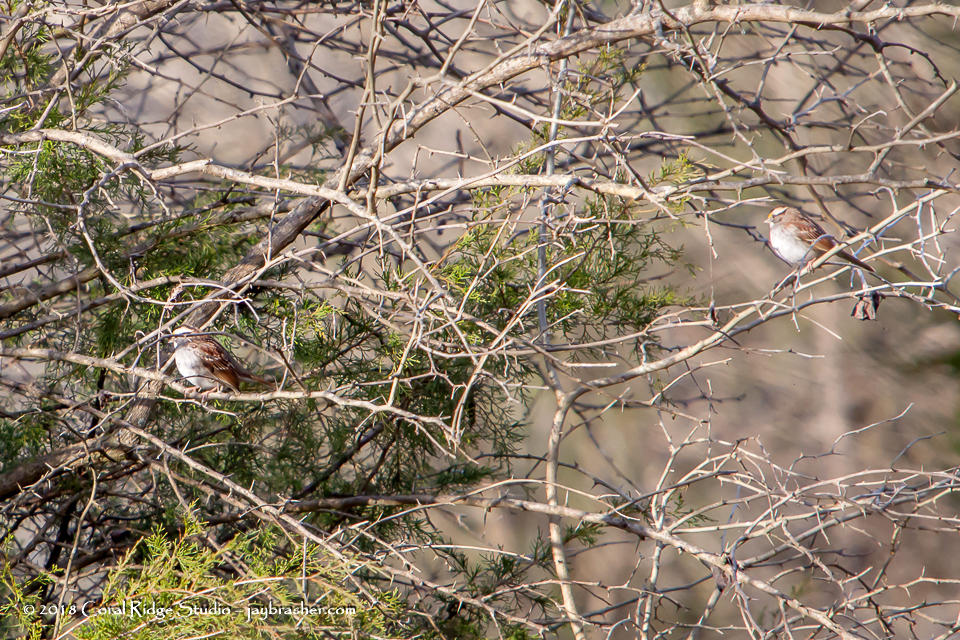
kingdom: Animalia
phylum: Chordata
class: Aves
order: Passeriformes
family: Passerellidae
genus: Zonotrichia
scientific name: Zonotrichia albicollis
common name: White-throated sparrow
